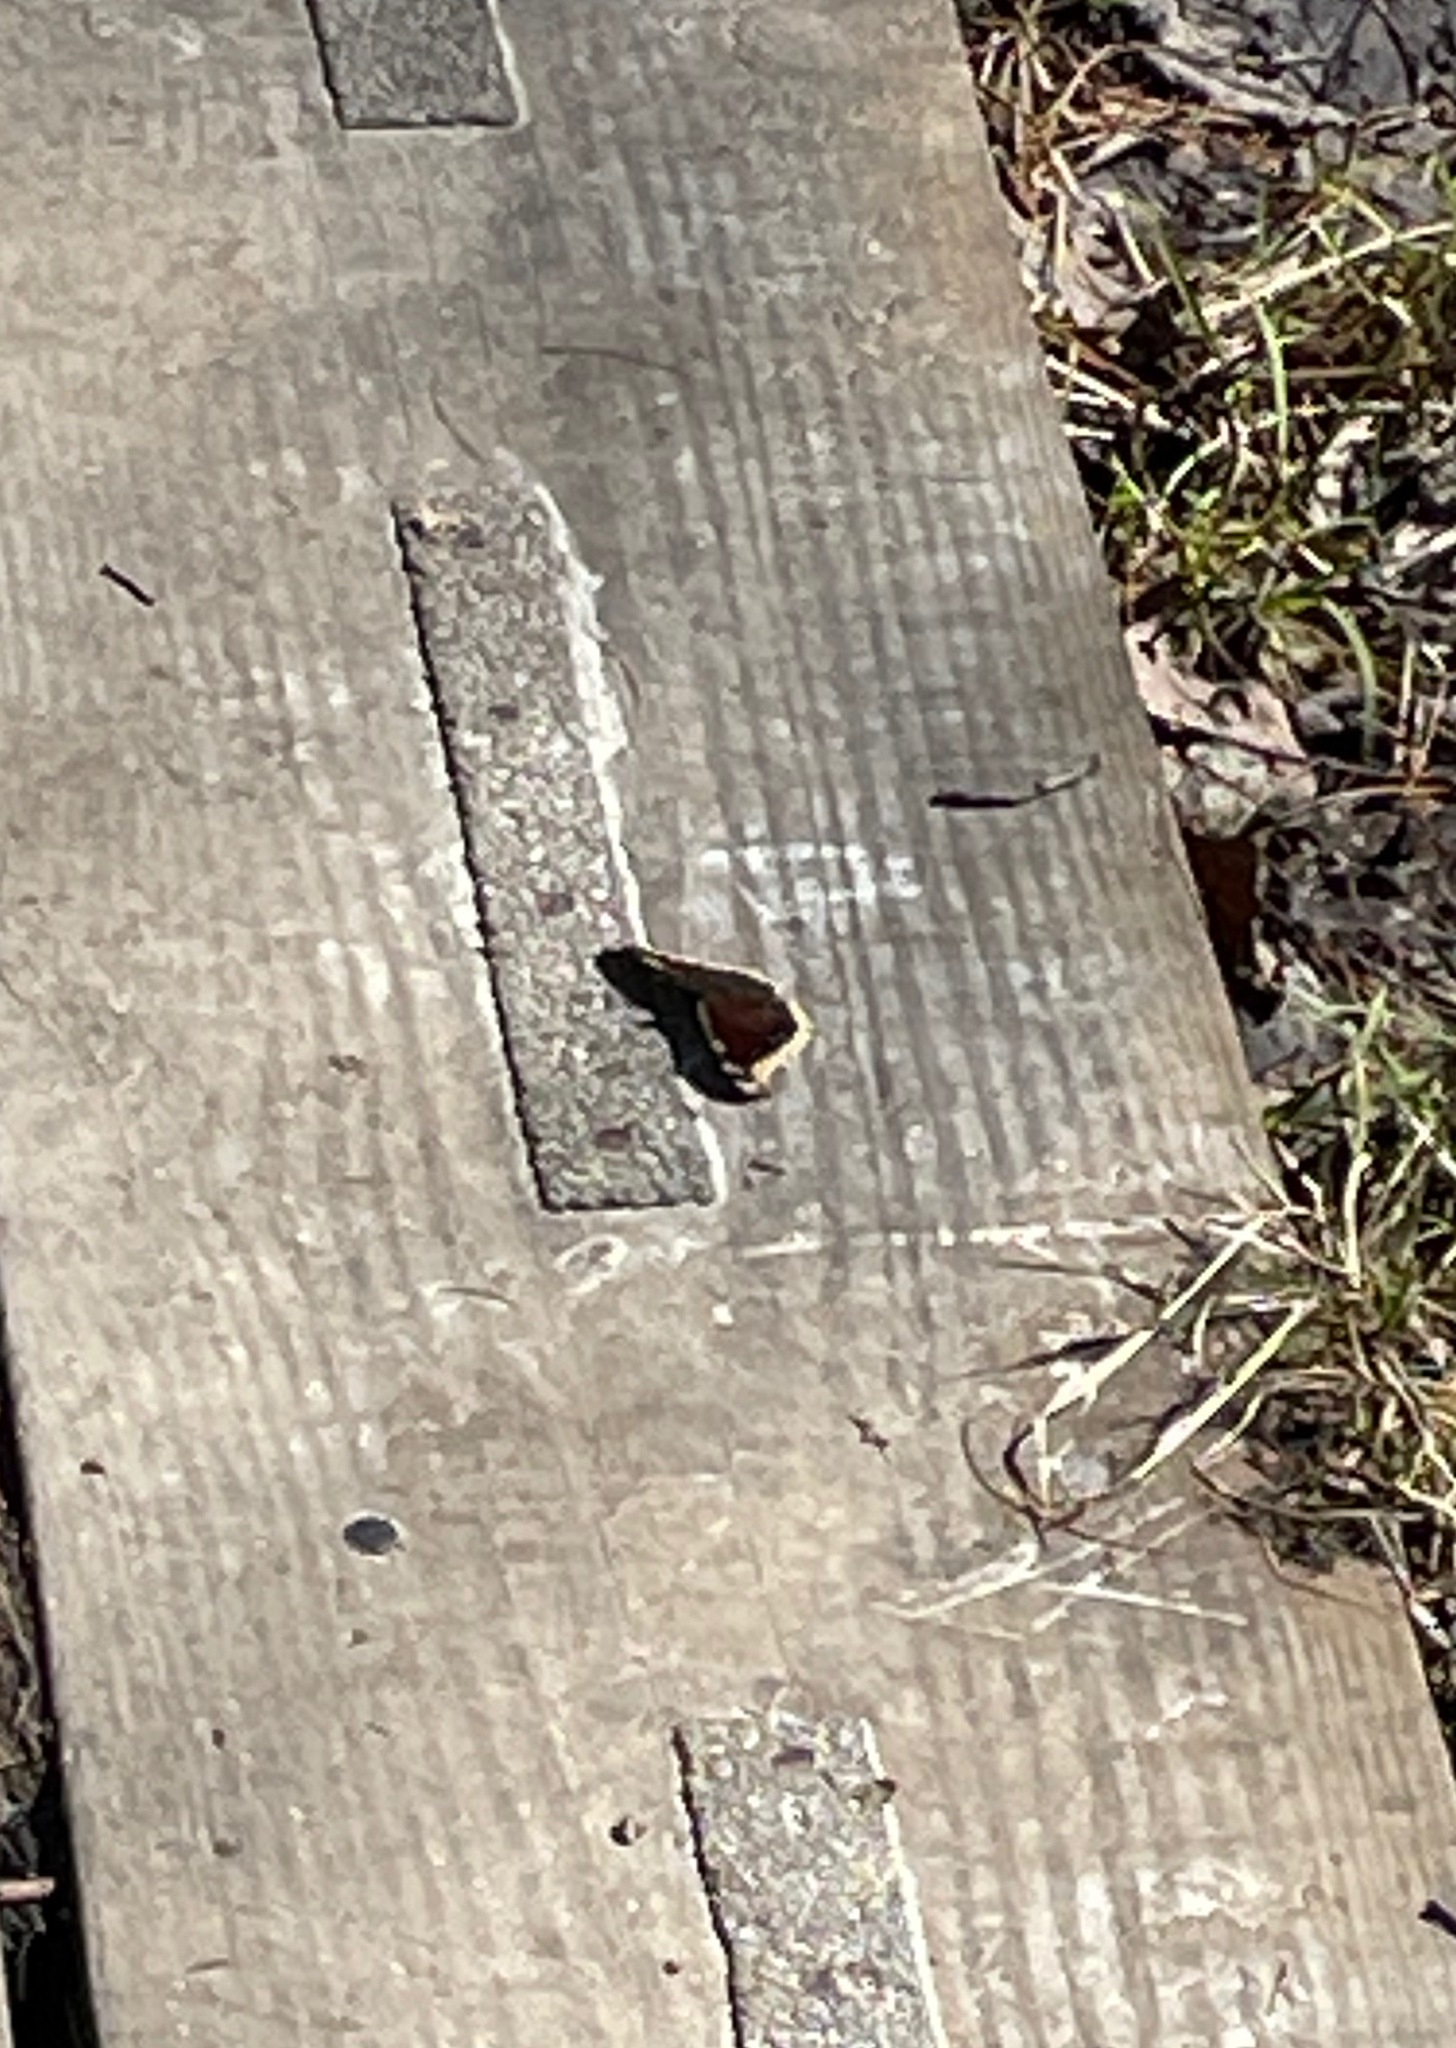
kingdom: Animalia
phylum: Arthropoda
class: Insecta
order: Lepidoptera
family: Nymphalidae
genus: Nymphalis
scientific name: Nymphalis antiopa
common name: Camberwell beauty
